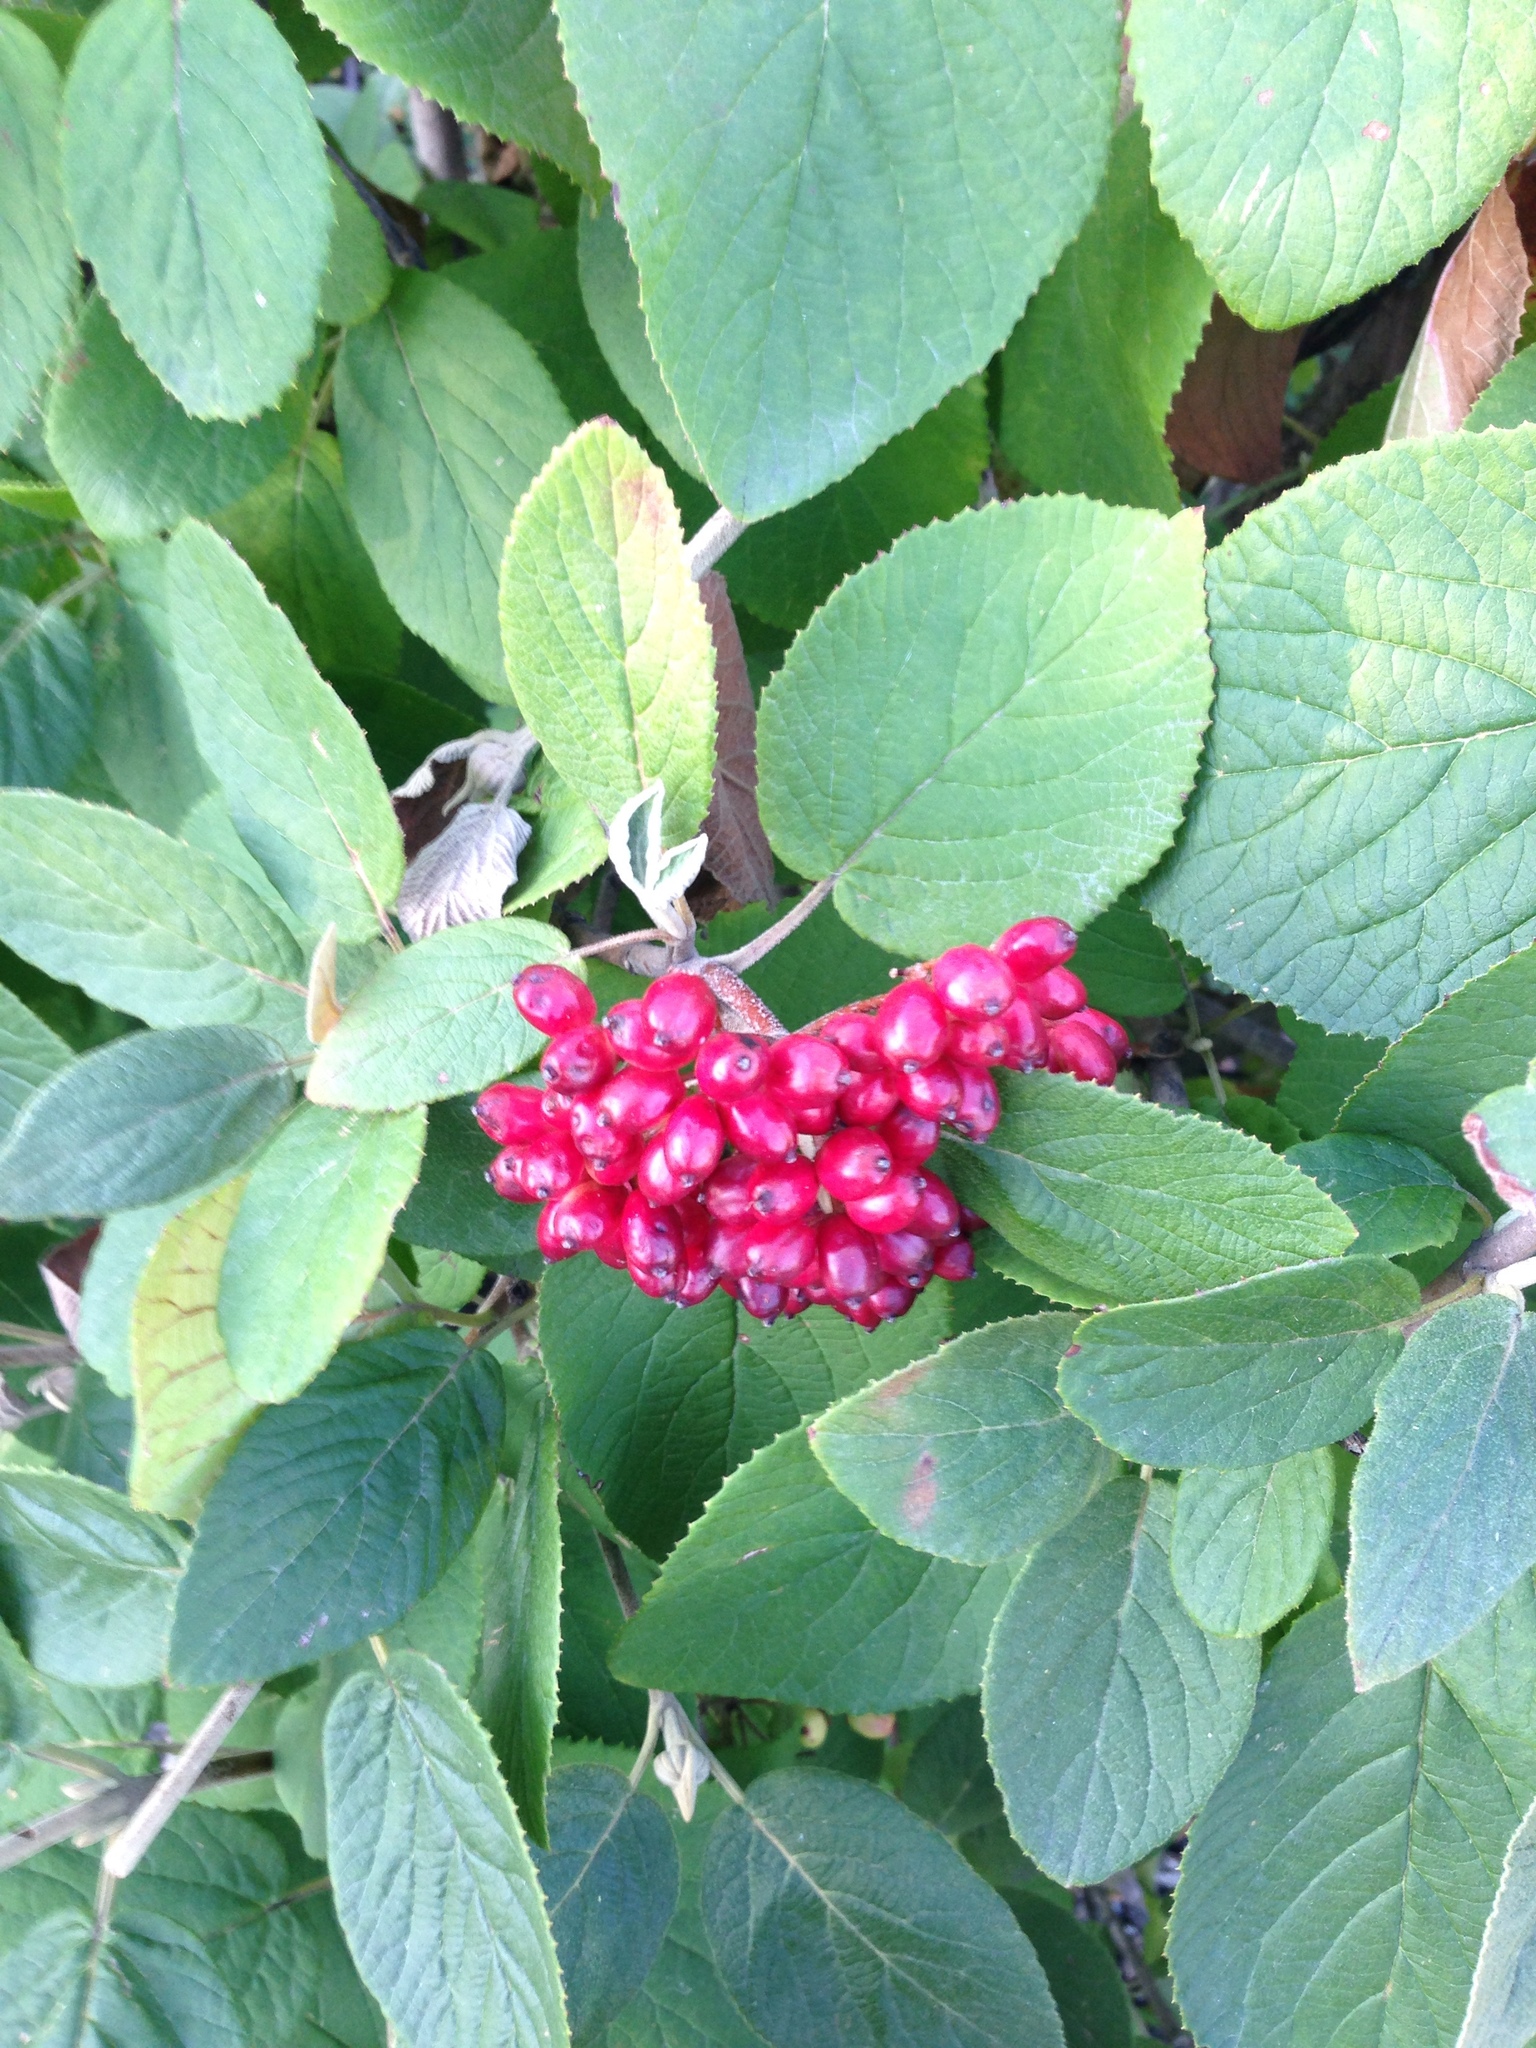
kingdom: Plantae
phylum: Tracheophyta
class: Magnoliopsida
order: Dipsacales
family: Viburnaceae
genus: Viburnum
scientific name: Viburnum lantana
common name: Wayfaring tree
